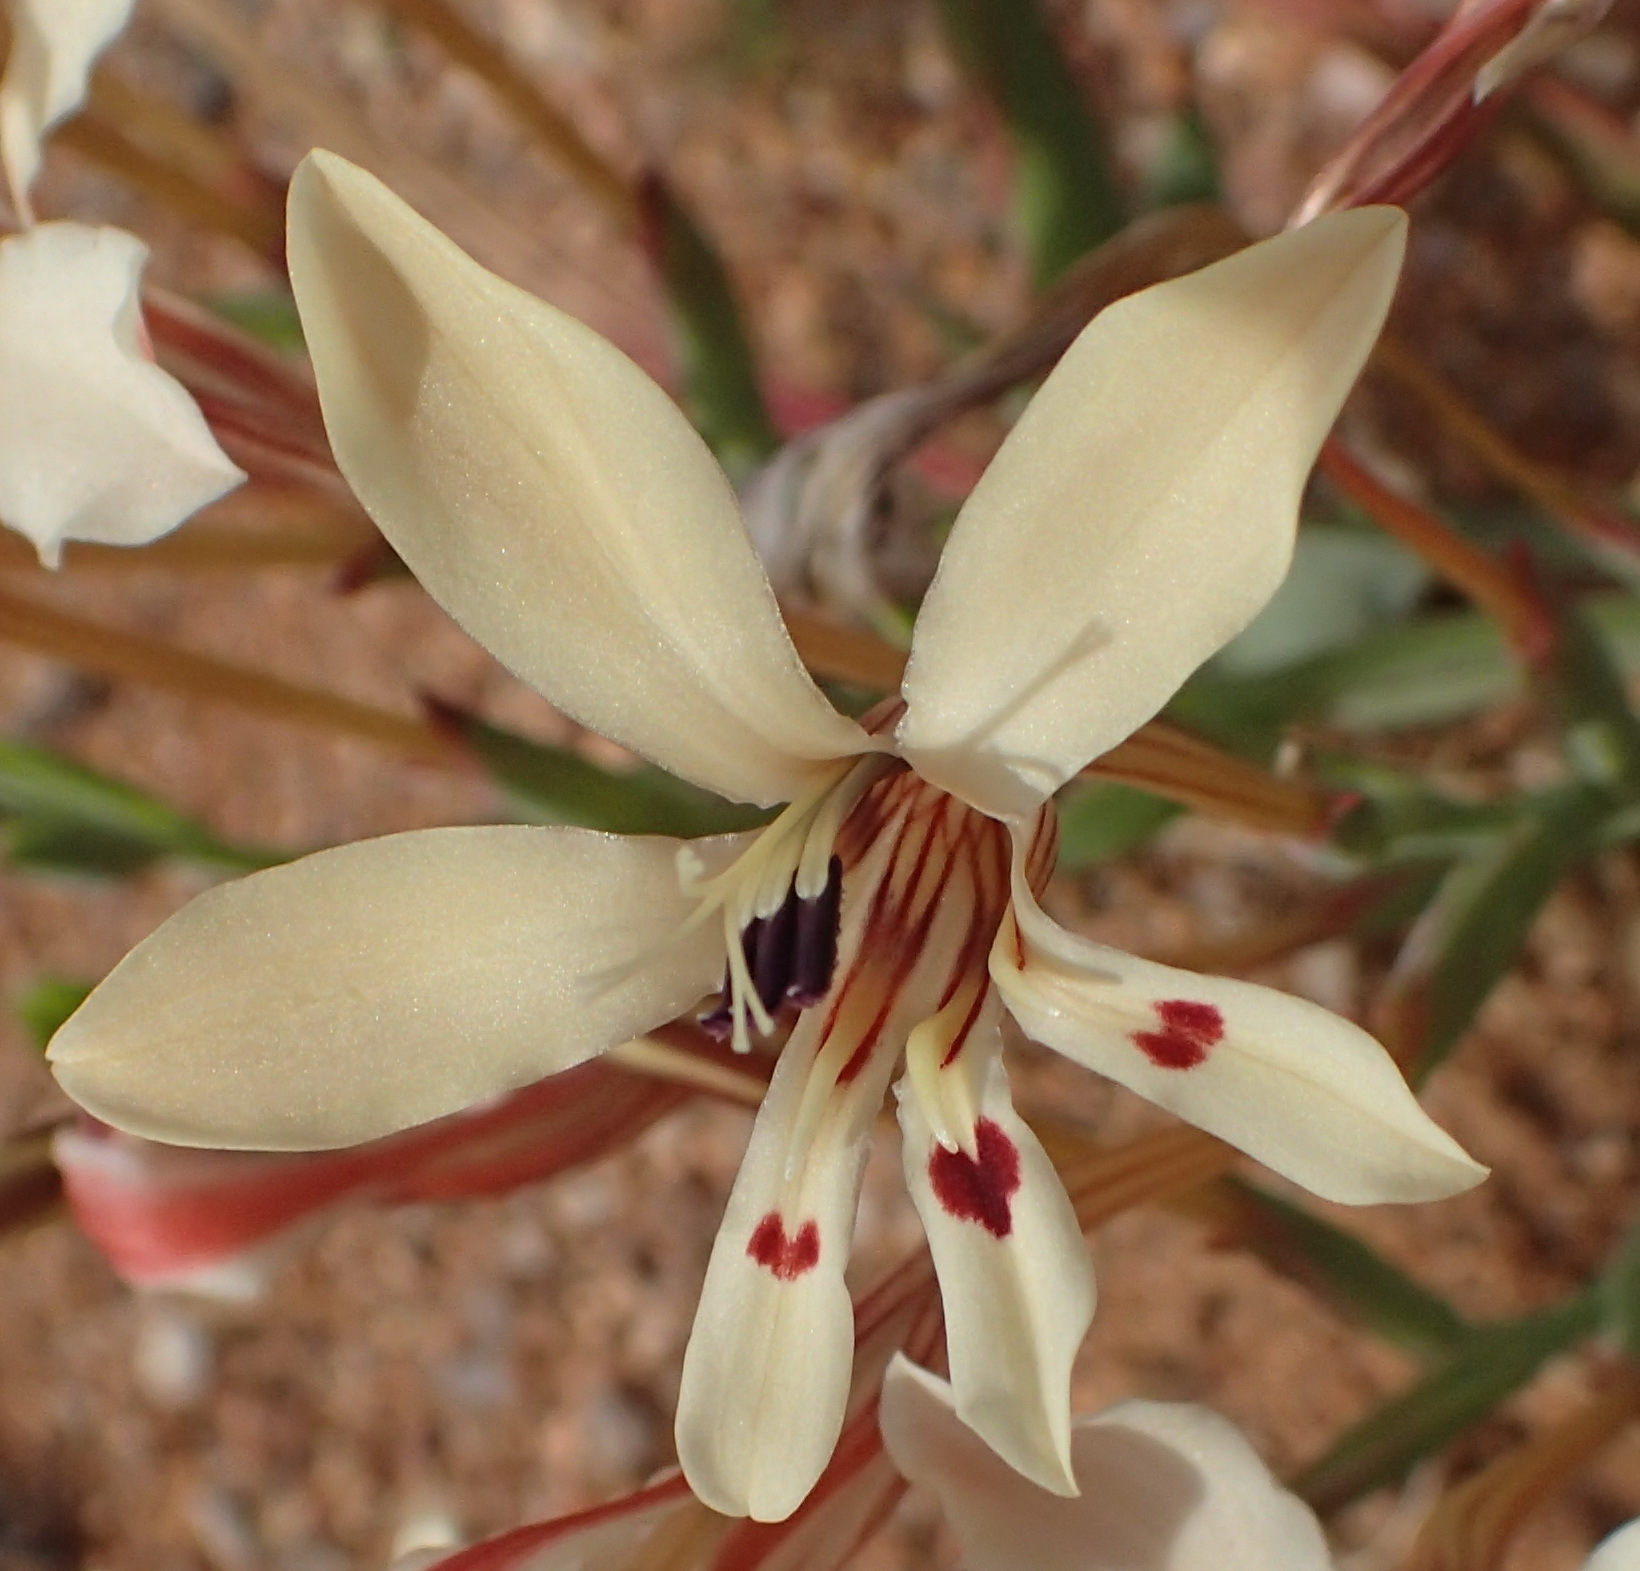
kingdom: Plantae
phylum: Tracheophyta
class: Liliopsida
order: Asparagales
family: Iridaceae
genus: Lapeirousia
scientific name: Lapeirousia fabricii
